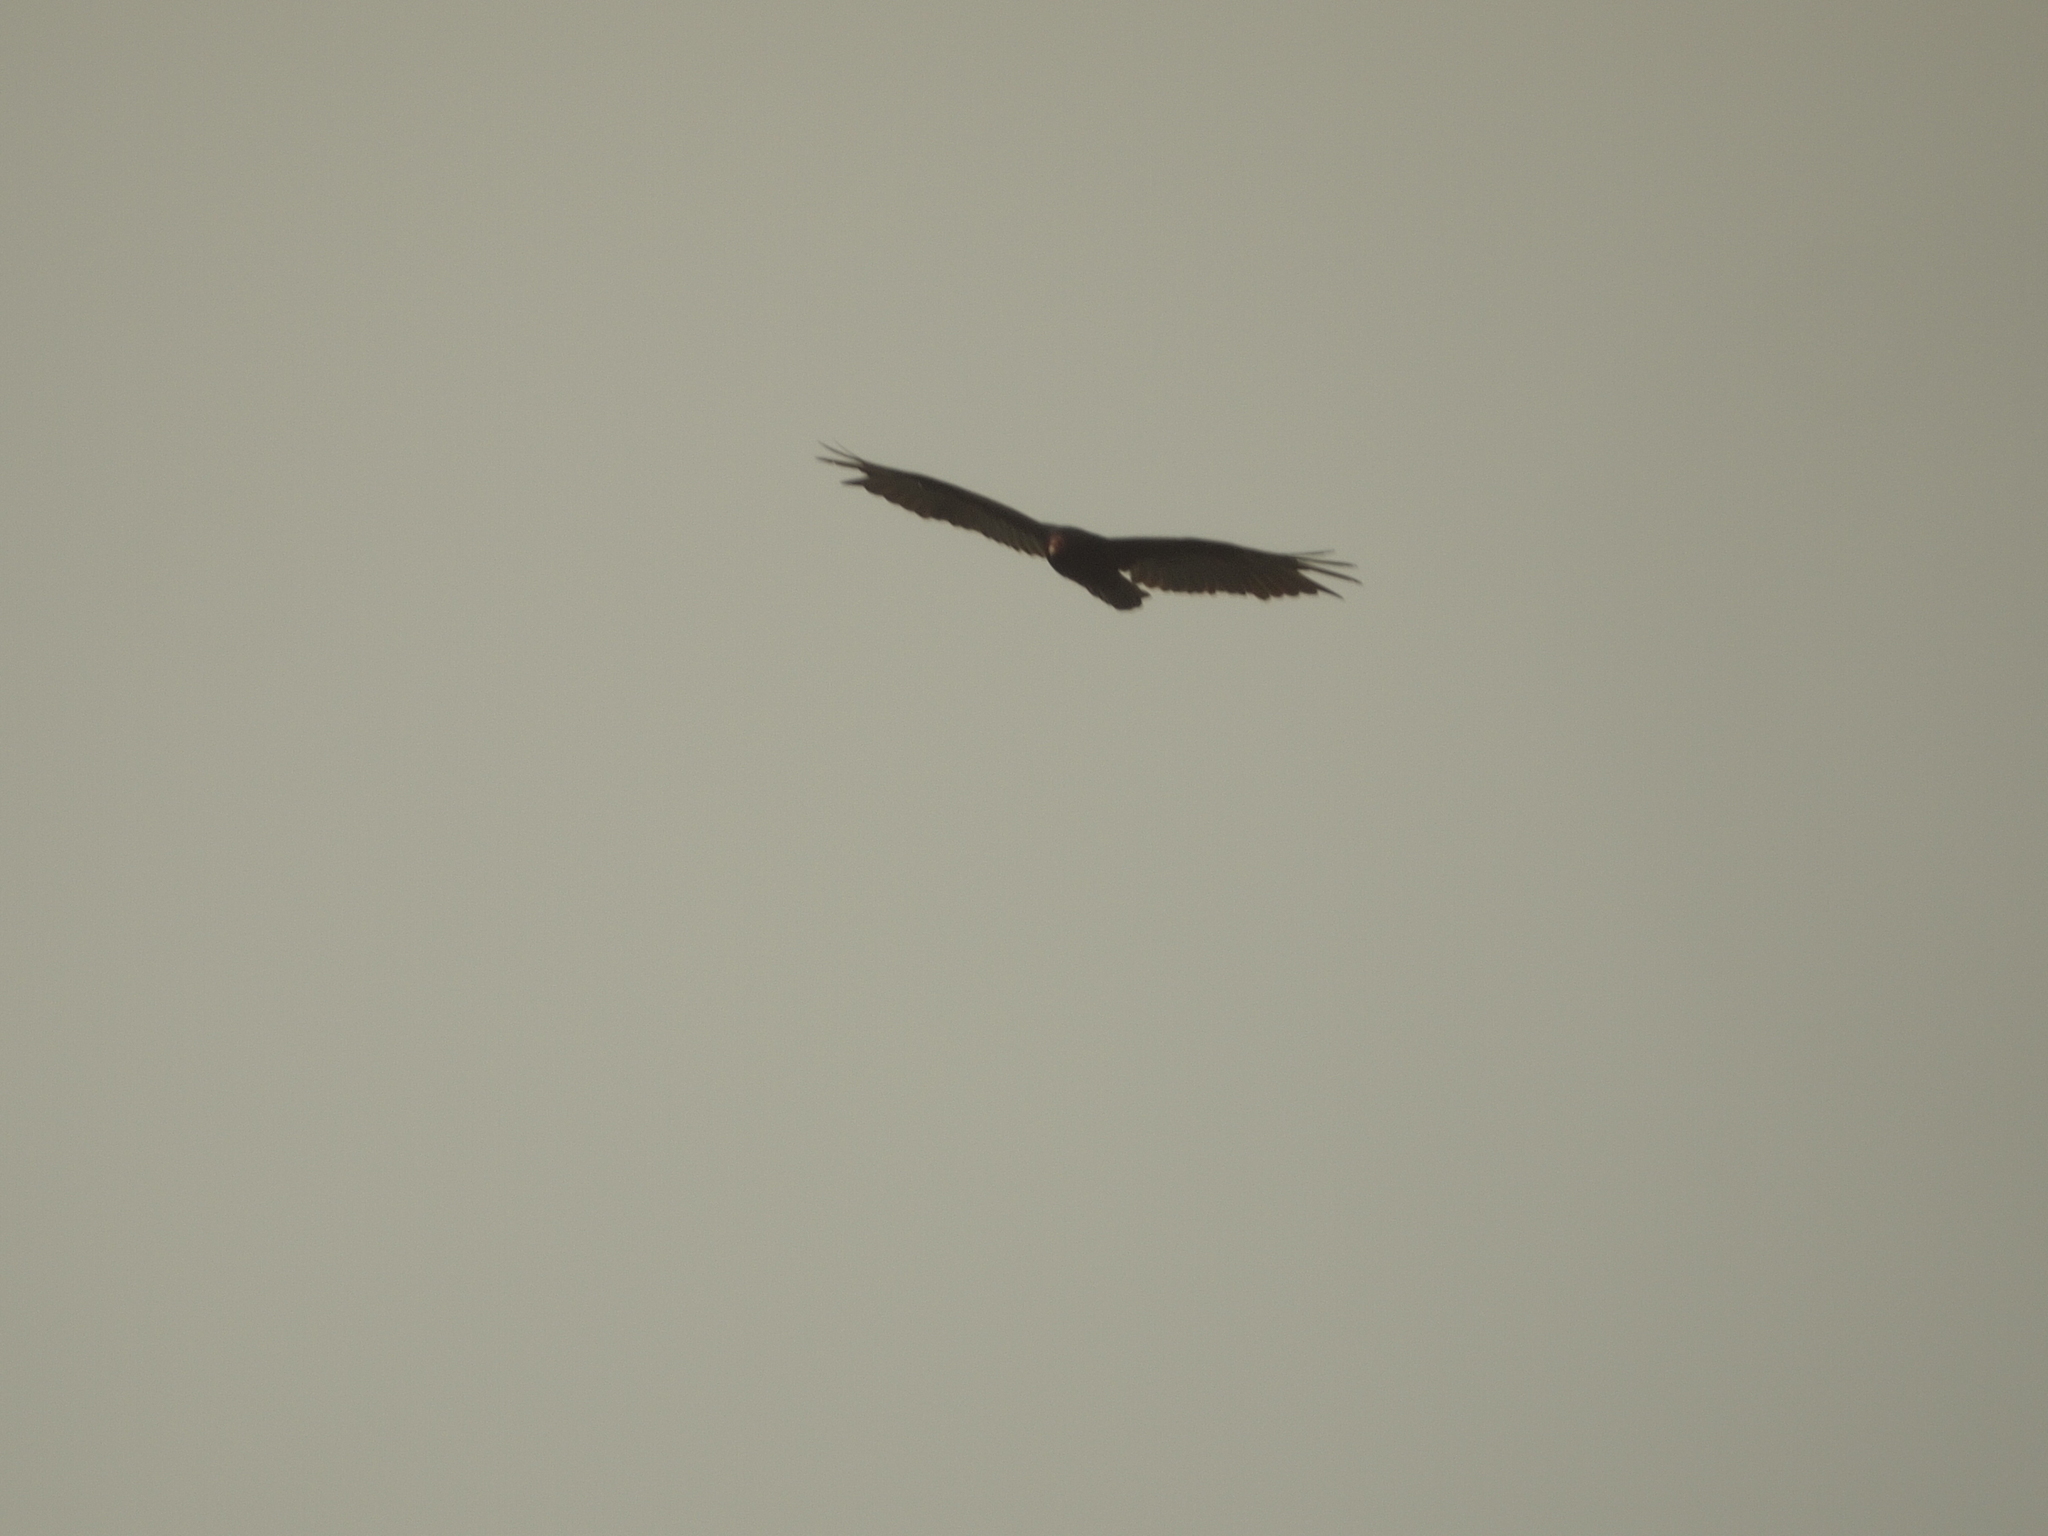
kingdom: Animalia
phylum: Chordata
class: Aves
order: Accipitriformes
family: Cathartidae
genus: Cathartes
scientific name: Cathartes aura
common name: Turkey vulture
